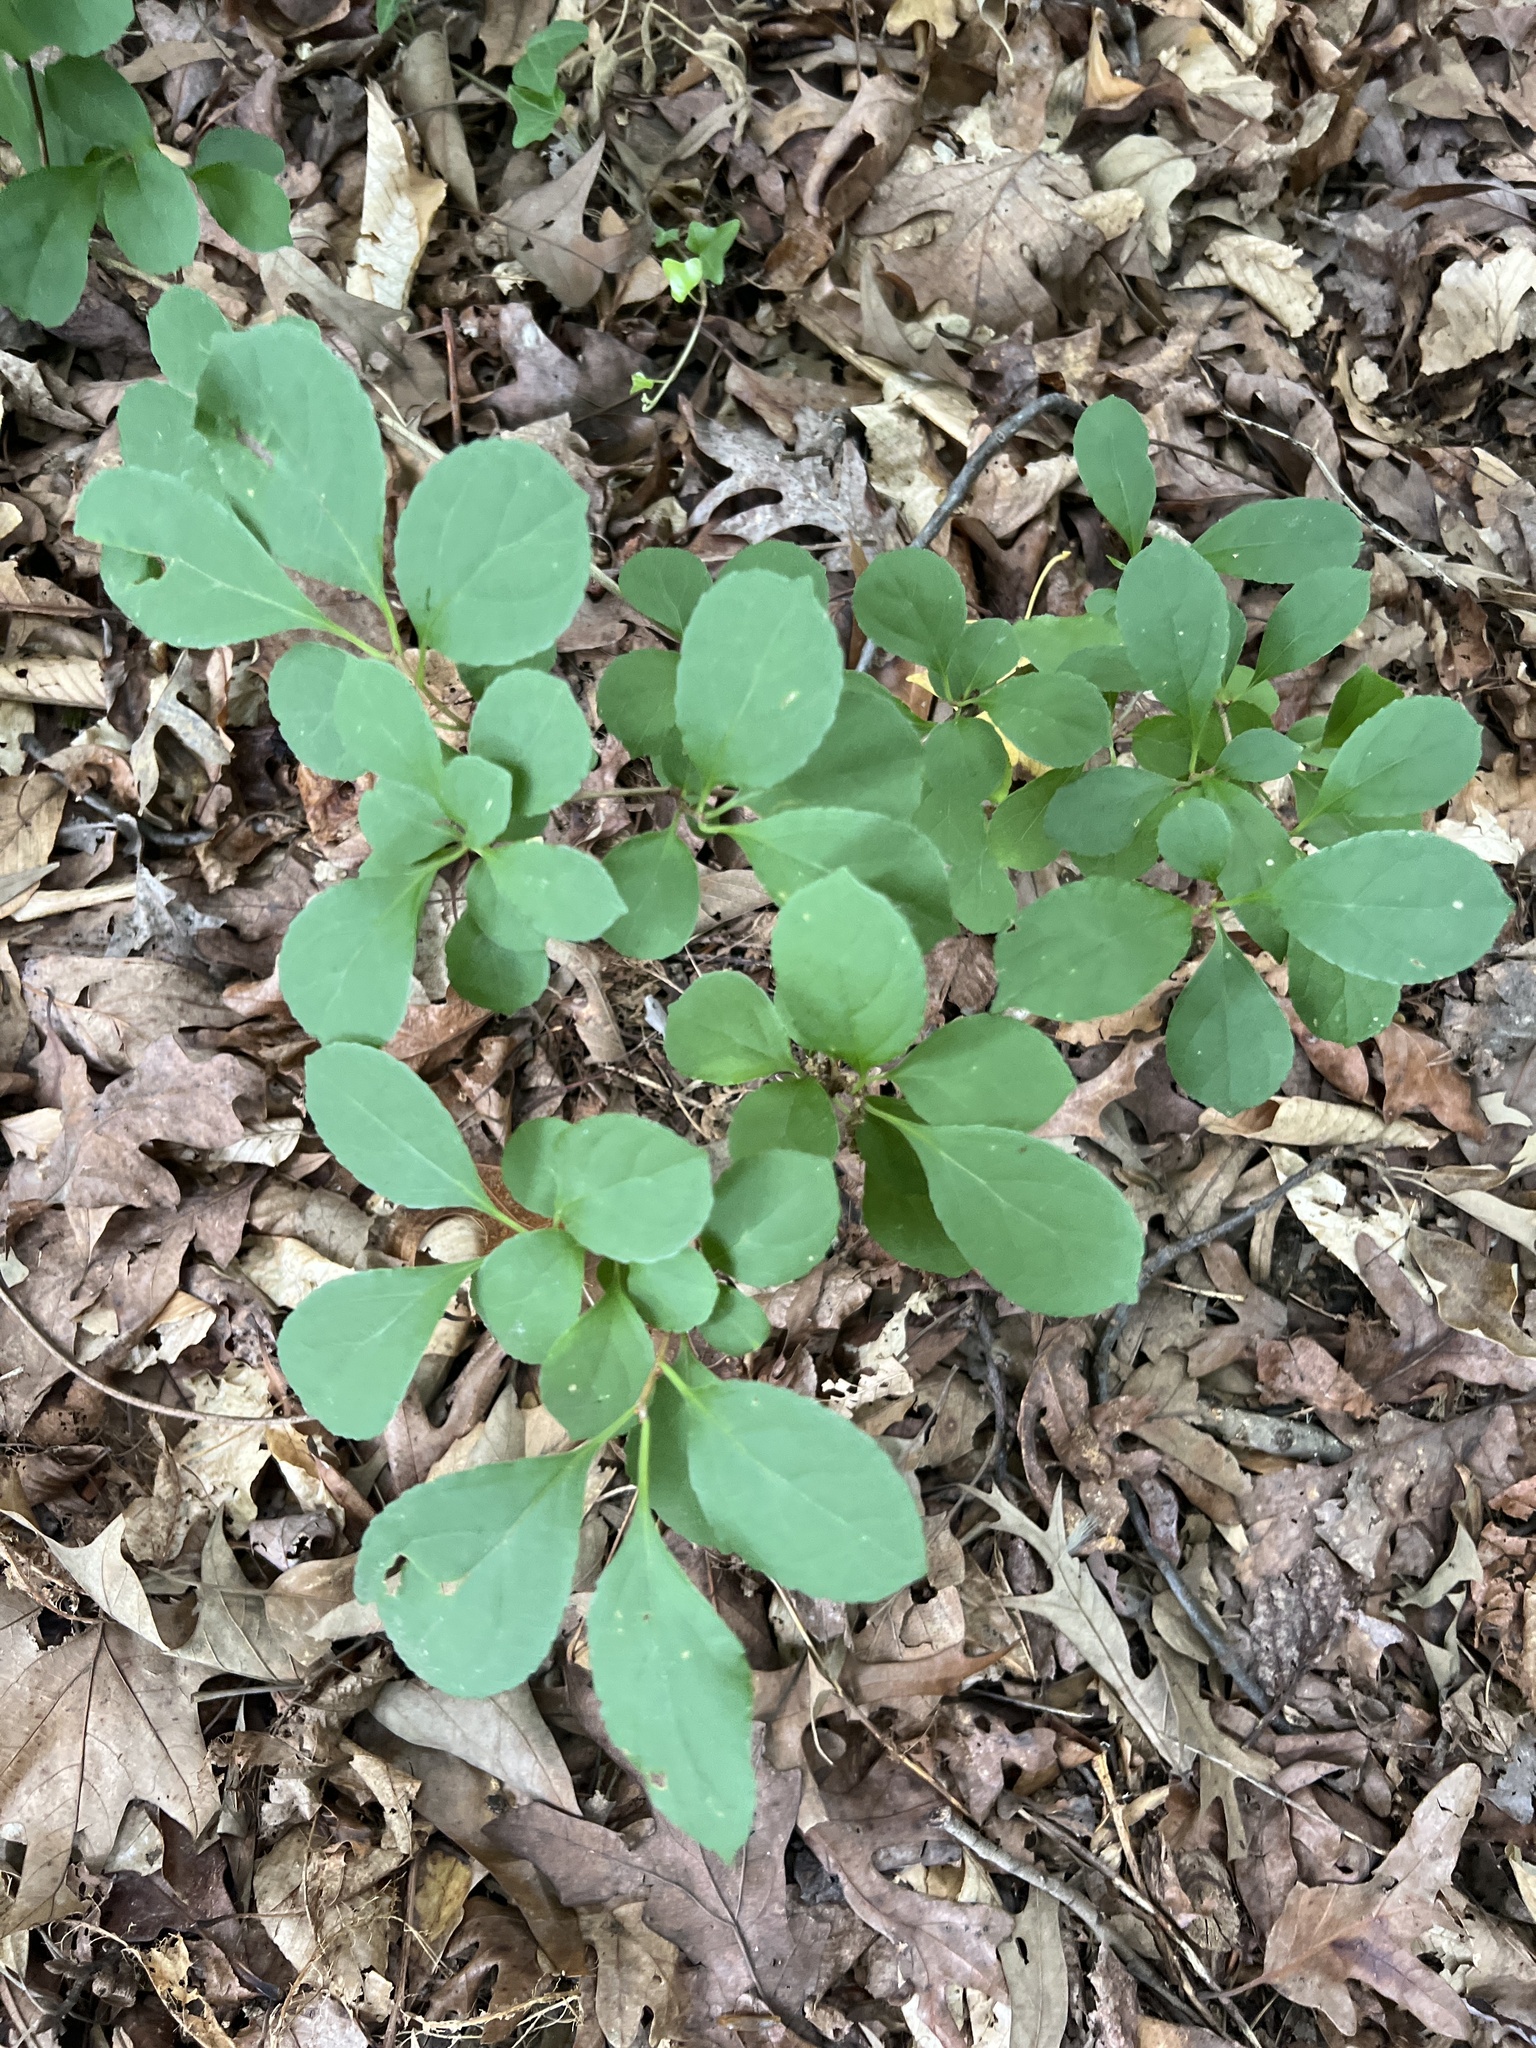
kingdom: Plantae
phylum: Tracheophyta
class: Magnoliopsida
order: Celastrales
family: Celastraceae
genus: Celastrus
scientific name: Celastrus orbiculatus
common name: Oriental bittersweet
